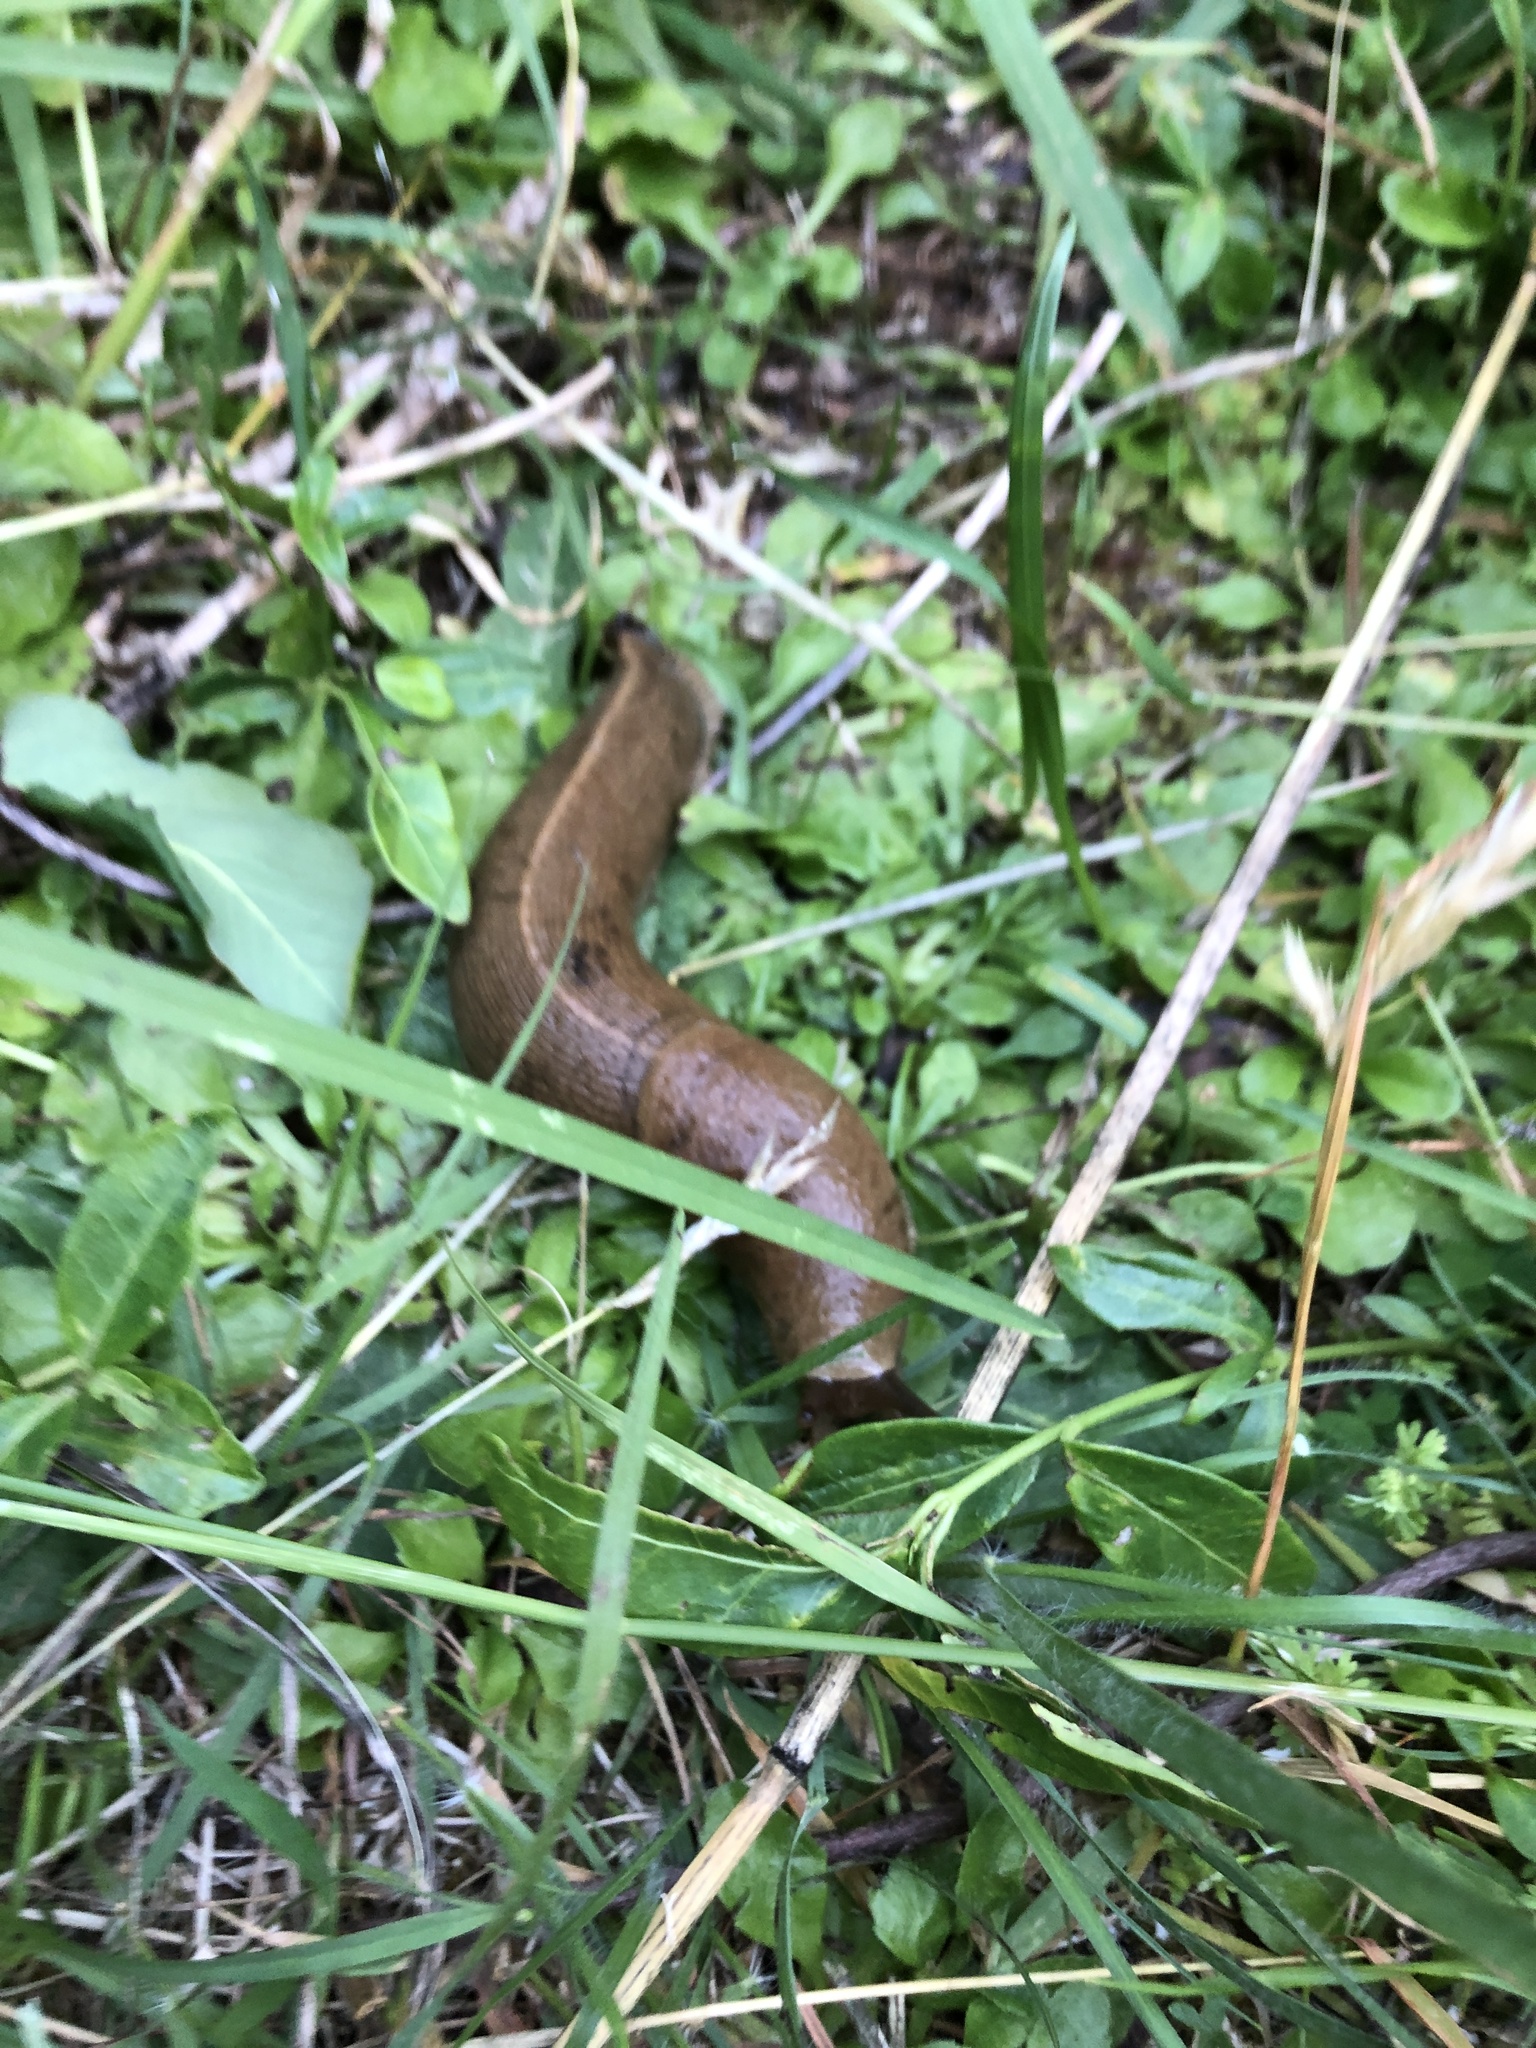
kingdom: Animalia
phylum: Mollusca
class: Gastropoda
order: Stylommatophora
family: Ariolimacidae
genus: Ariolimax
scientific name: Ariolimax columbianus
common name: Pacific banana slug
